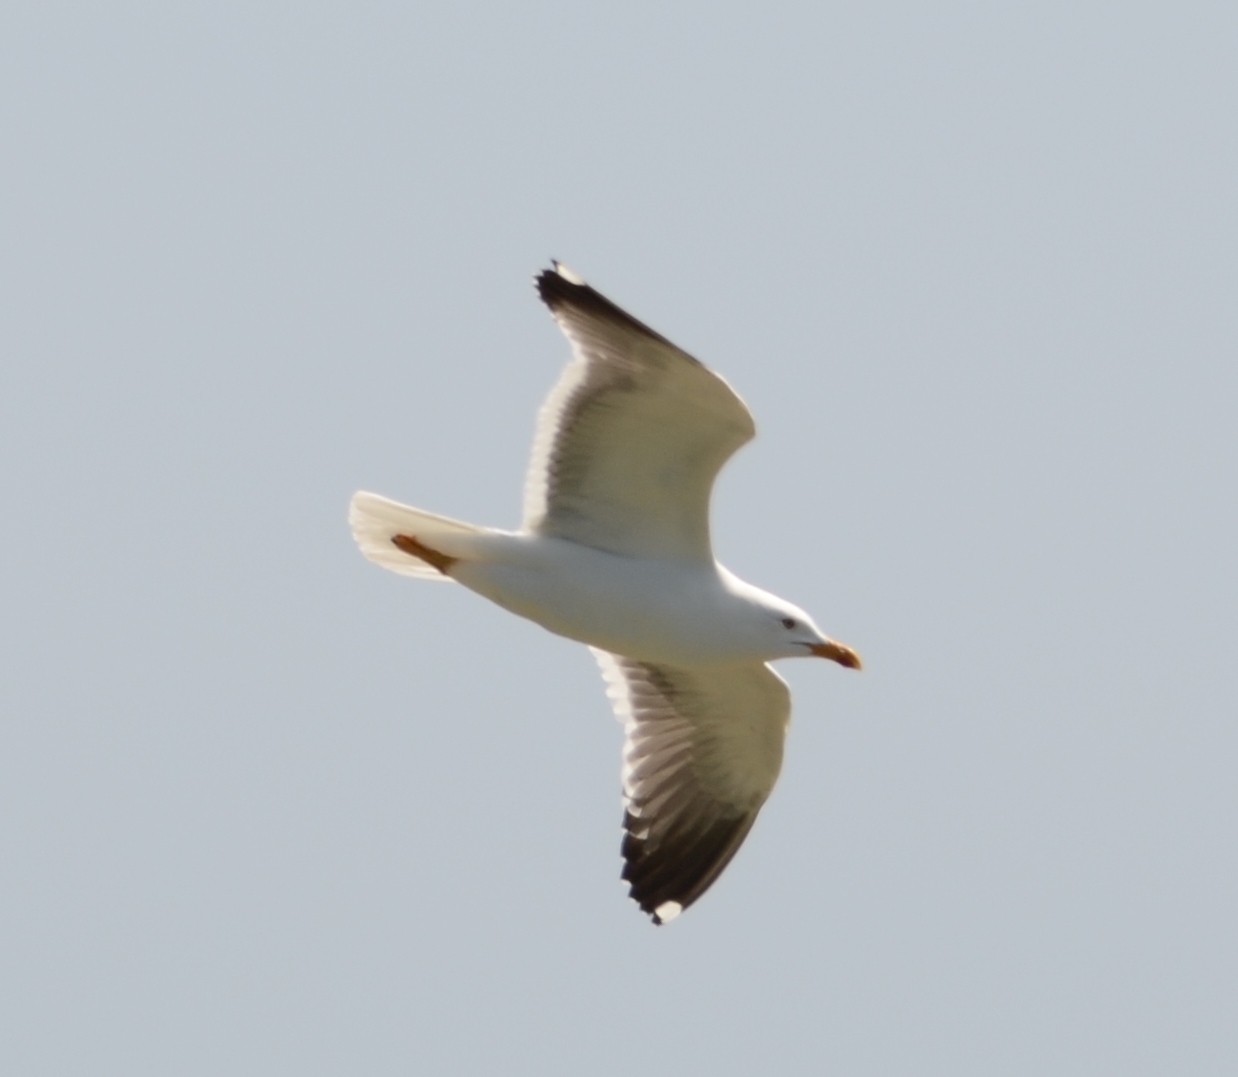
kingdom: Animalia
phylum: Chordata
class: Aves
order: Charadriiformes
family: Laridae
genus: Larus
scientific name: Larus fuscus
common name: Lesser black-backed gull
